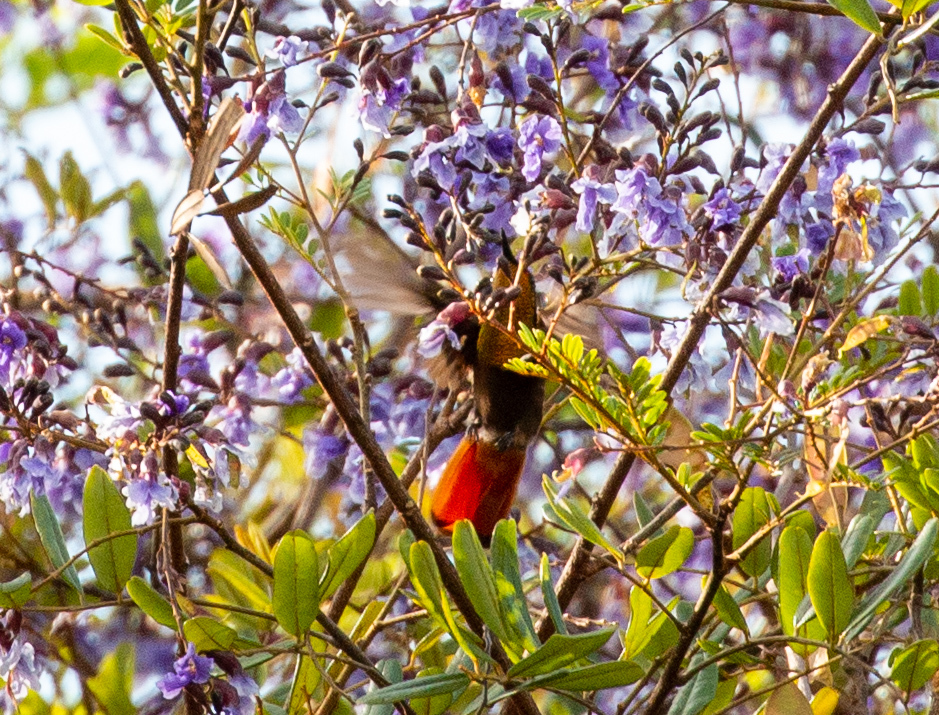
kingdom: Animalia
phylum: Chordata
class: Aves
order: Apodiformes
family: Trochilidae
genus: Chrysolampis
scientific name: Chrysolampis mosquitus
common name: Ruby-topaz hummingbird
